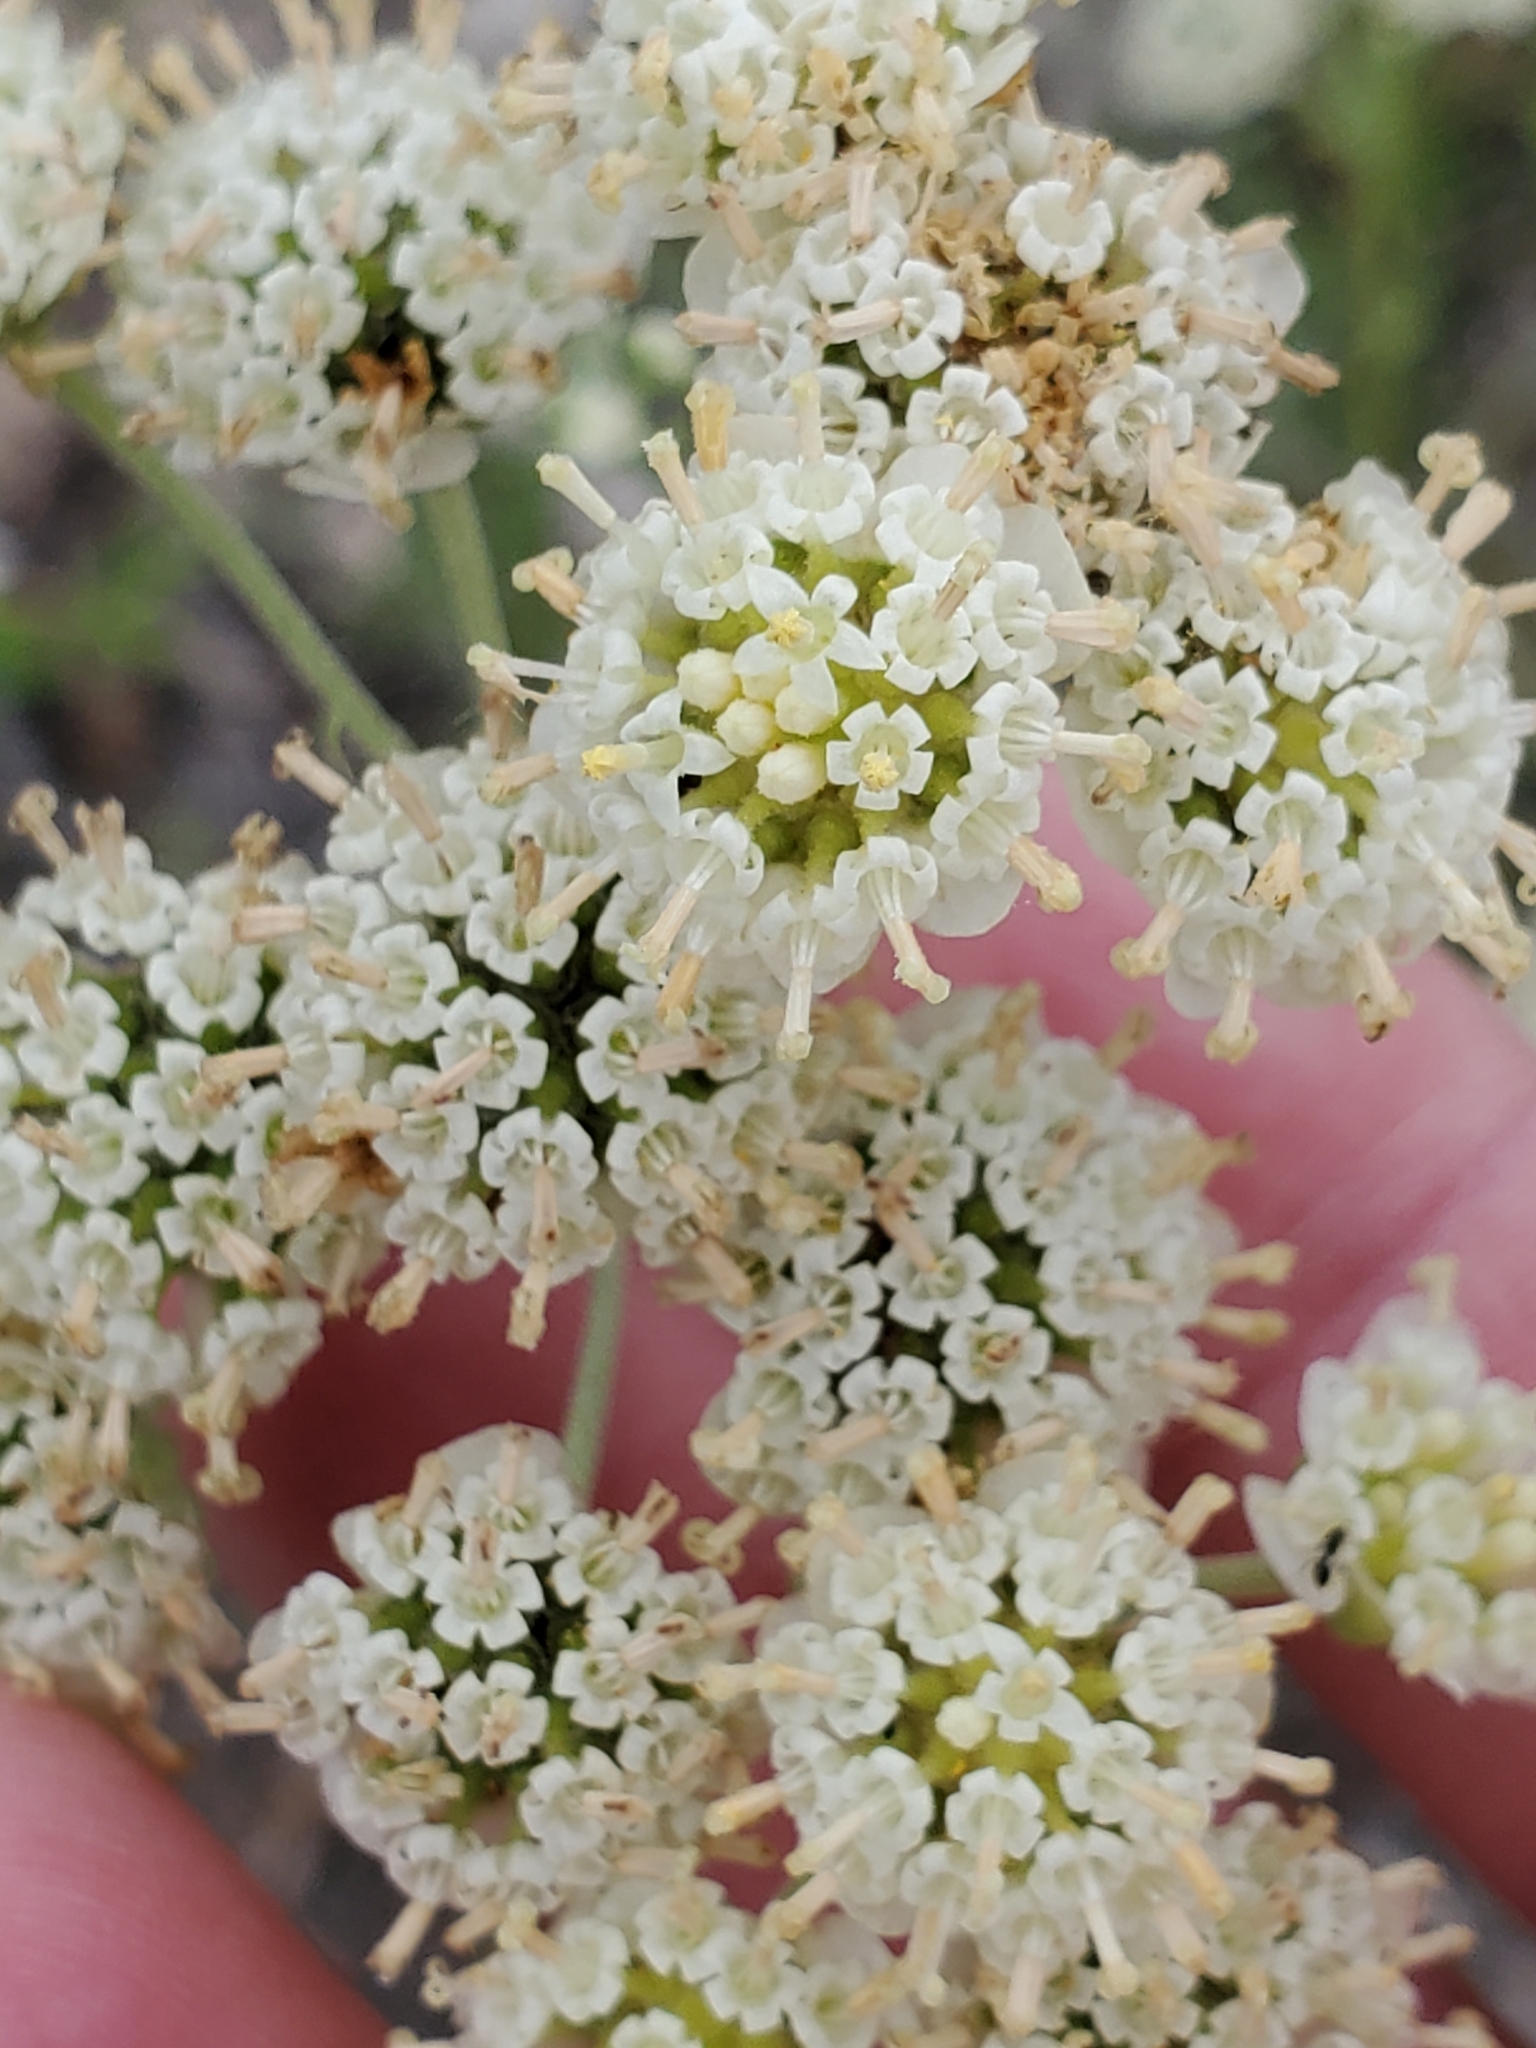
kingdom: Plantae
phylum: Tracheophyta
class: Magnoliopsida
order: Asterales
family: Asteraceae
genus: Hymenopappus
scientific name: Hymenopappus scabiosaeus
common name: Carolina woollywhite
